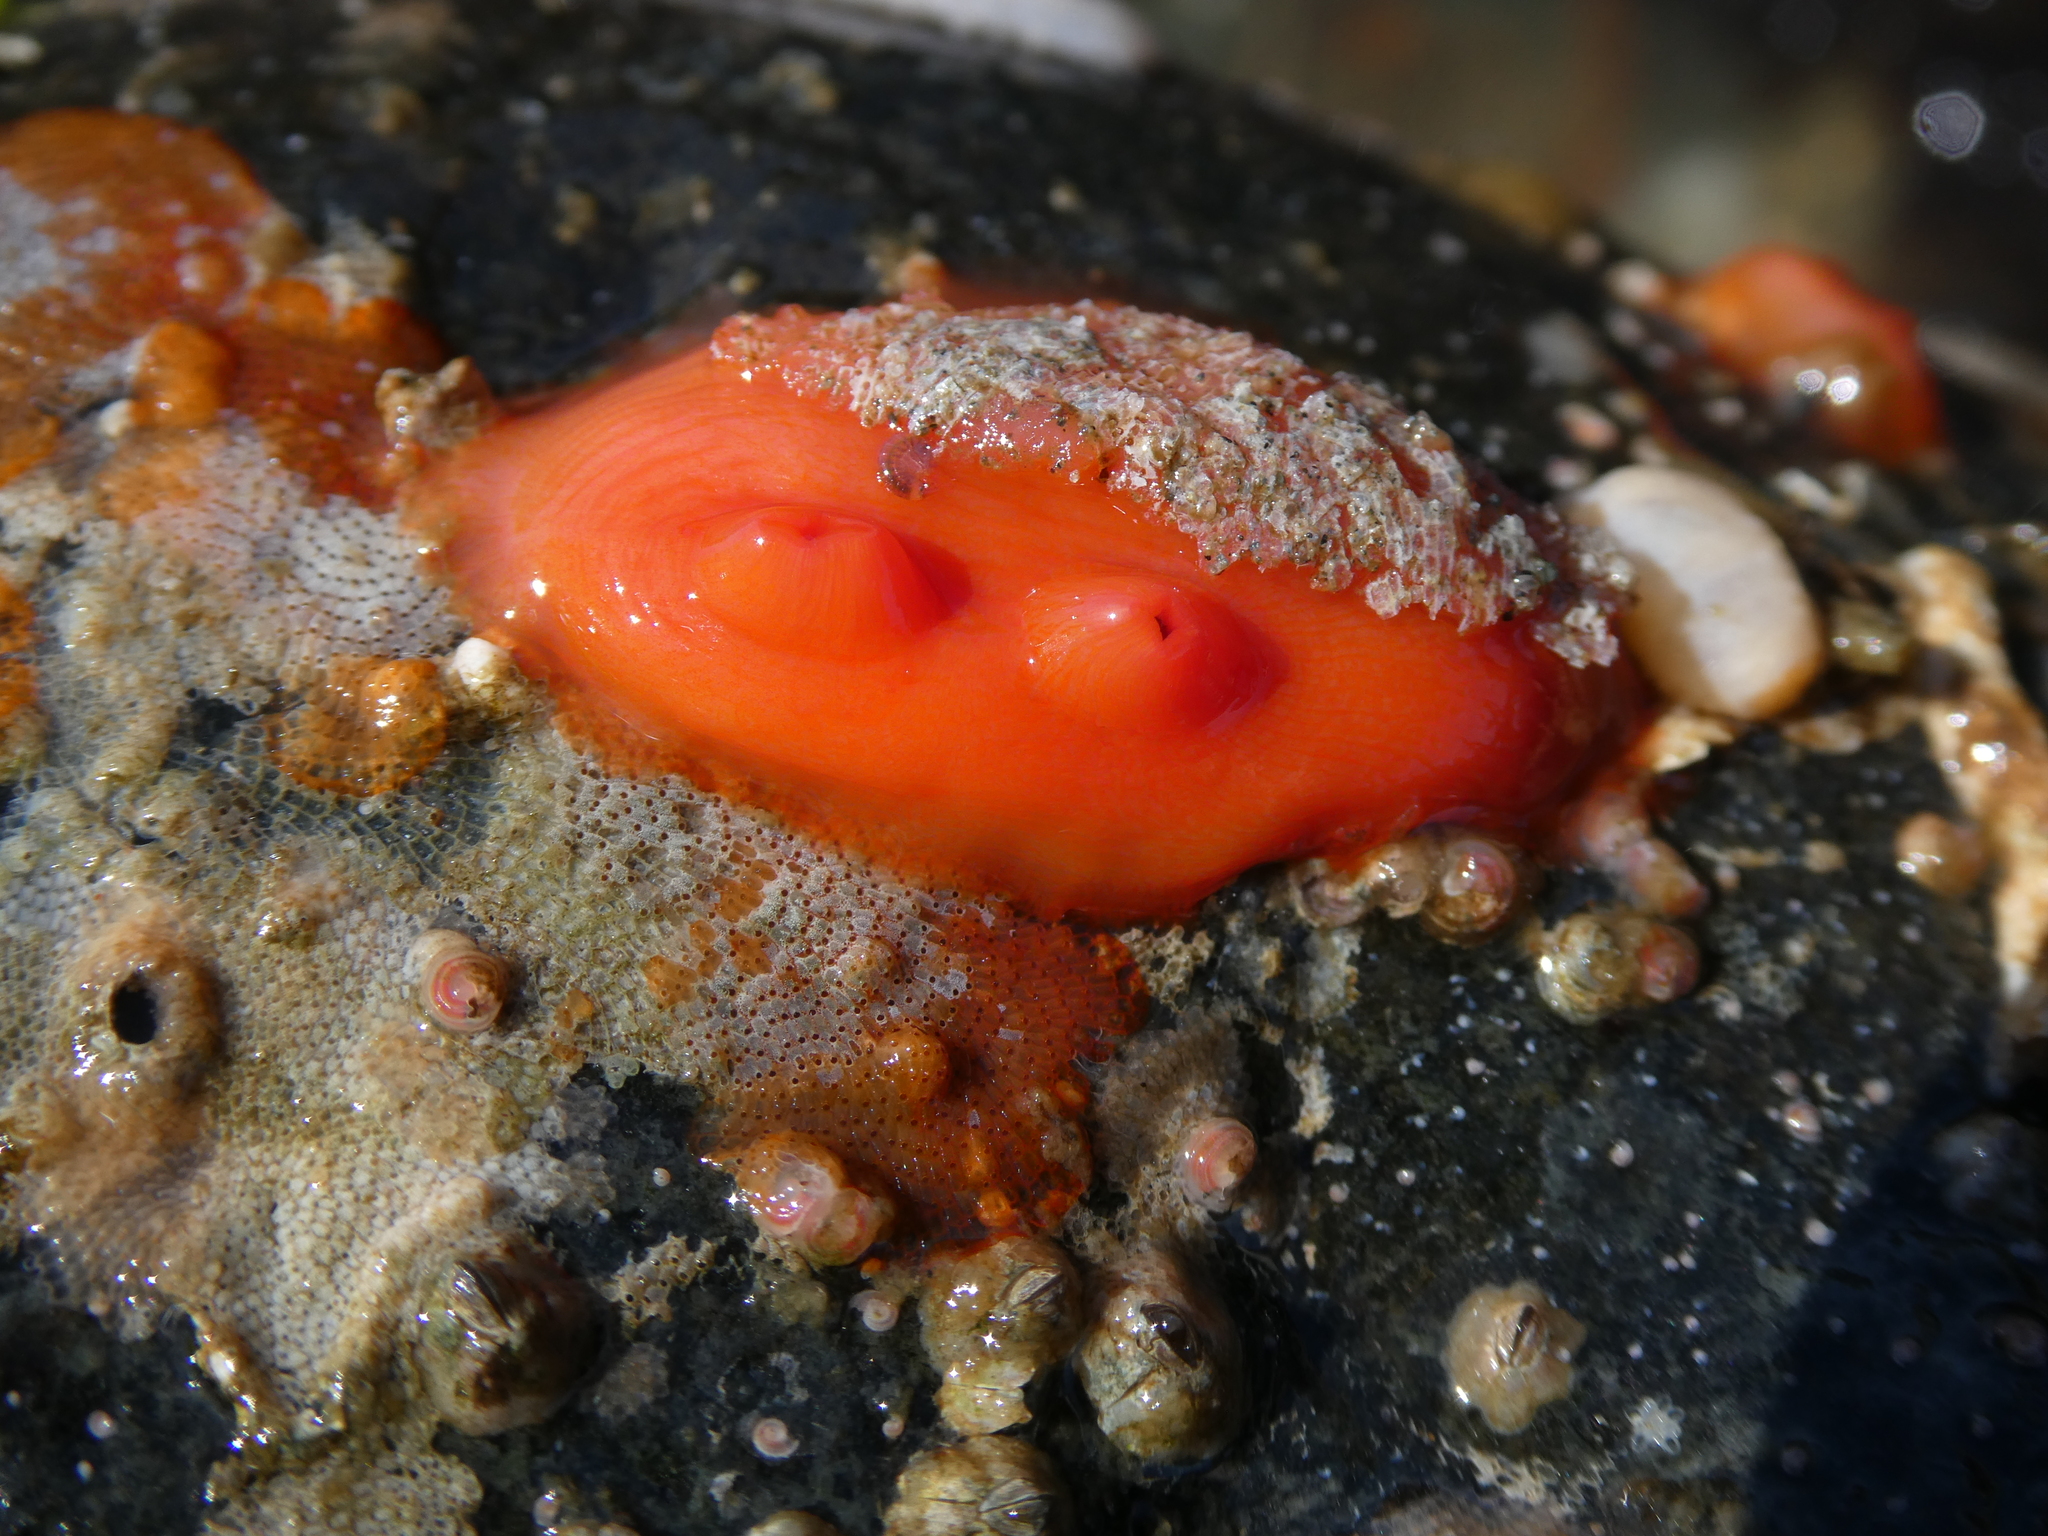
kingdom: Animalia
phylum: Chordata
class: Ascidiacea
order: Stolidobranchia
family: Styelidae
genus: Cnemidocarpa
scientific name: Cnemidocarpa finmarkiensis
